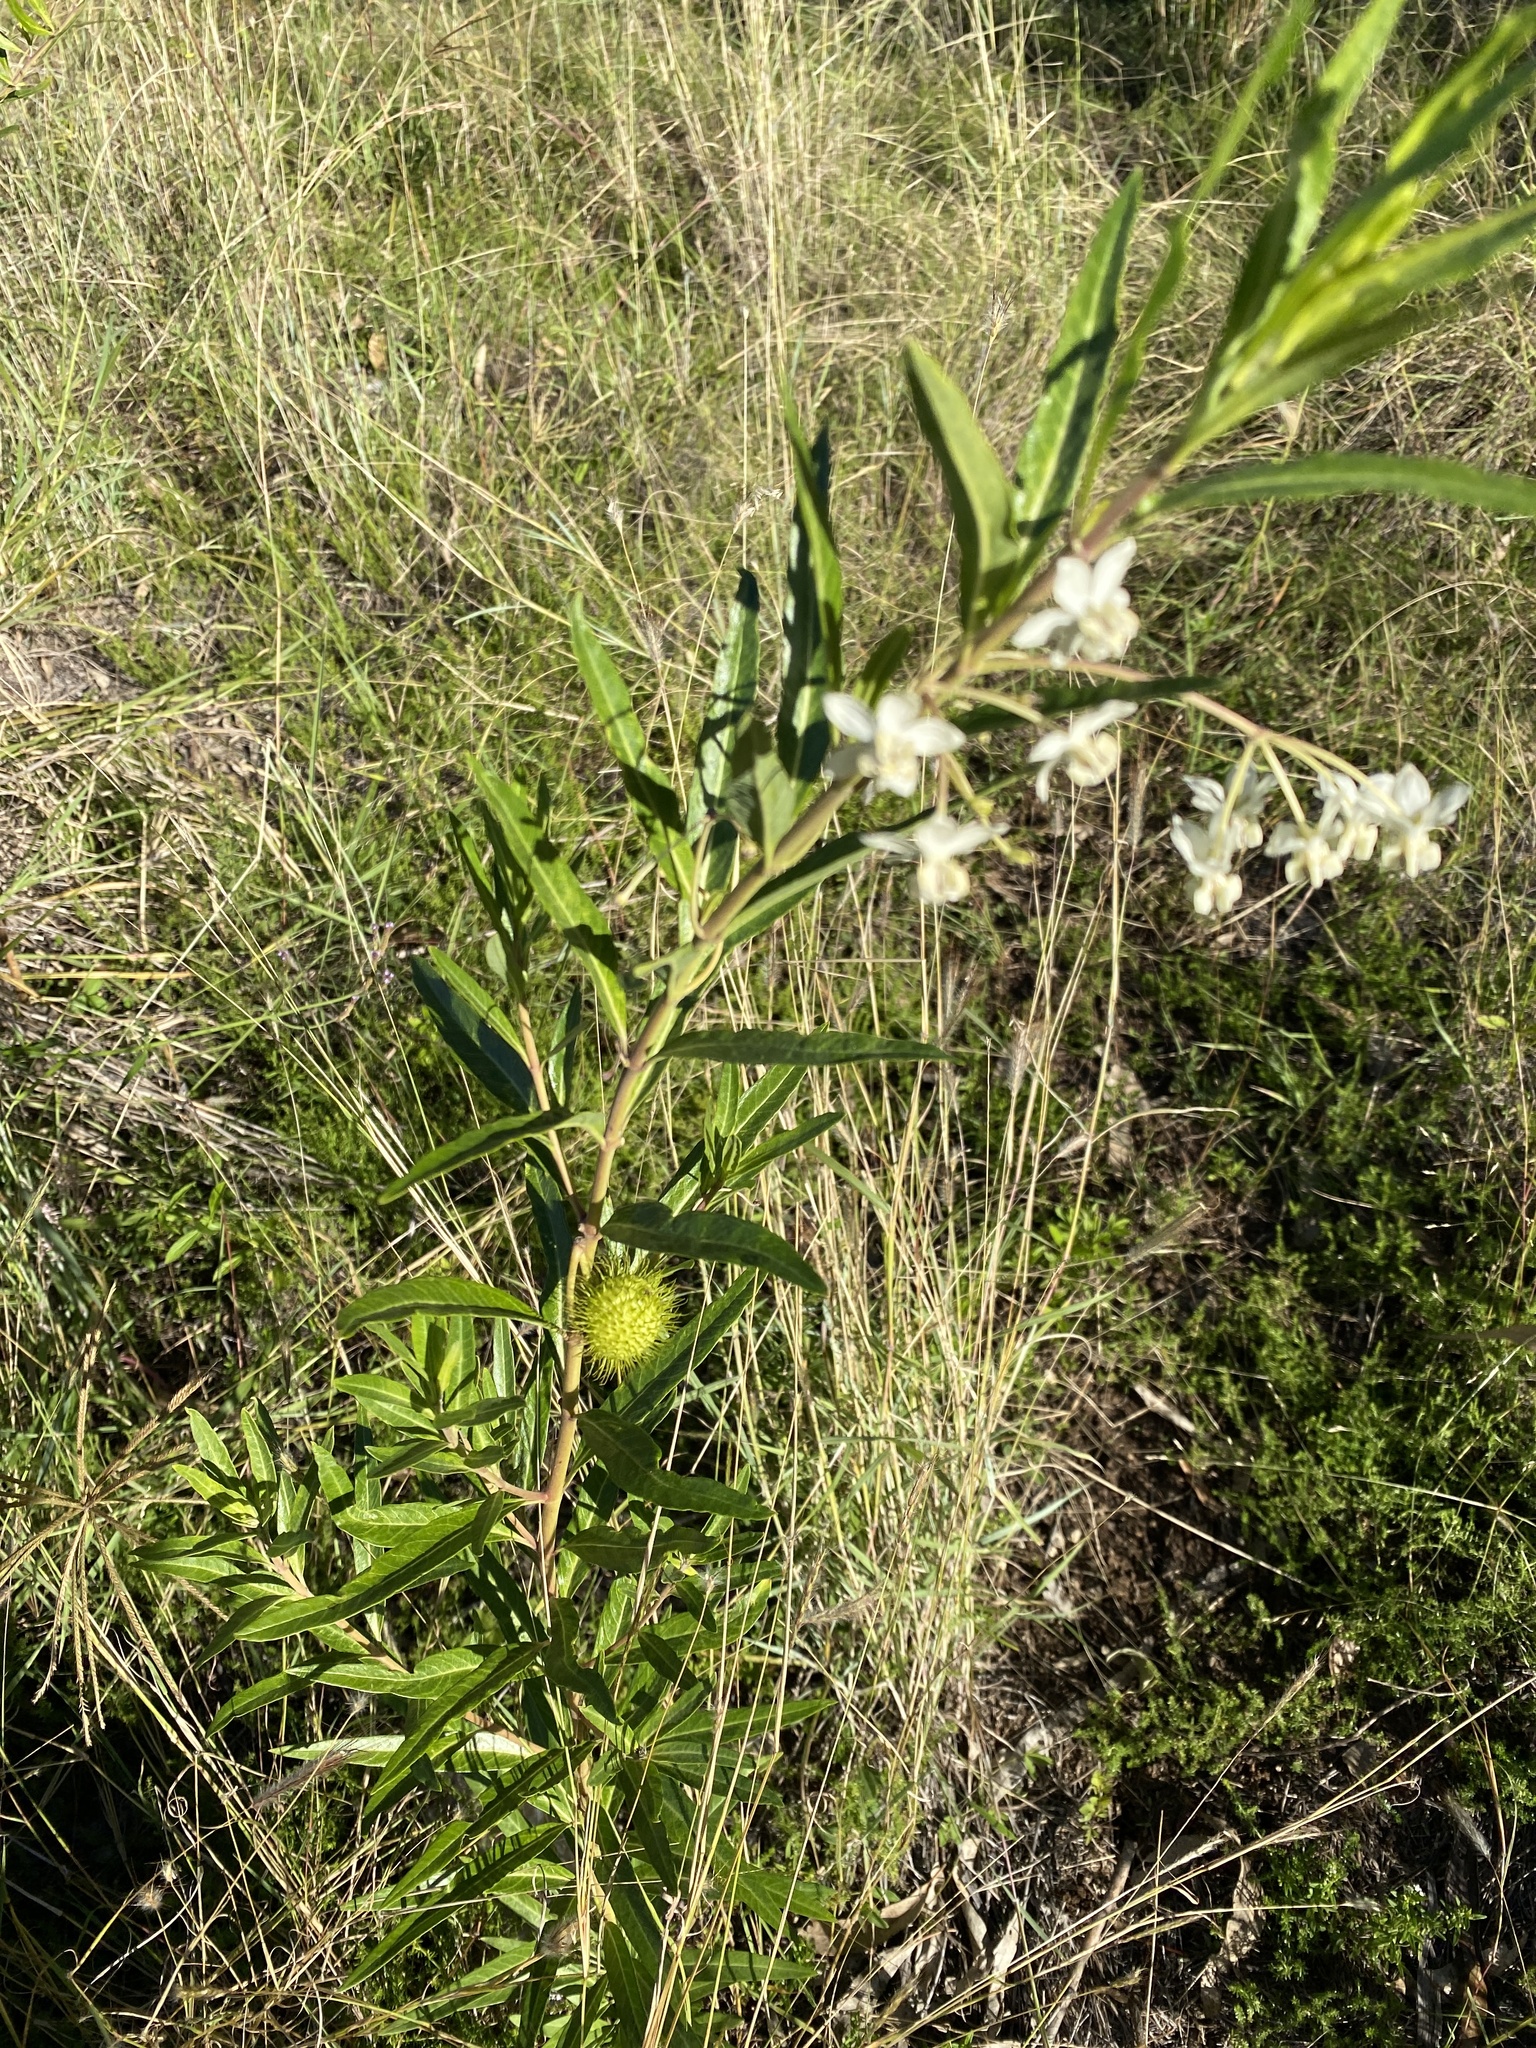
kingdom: Plantae
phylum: Tracheophyta
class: Magnoliopsida
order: Gentianales
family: Apocynaceae
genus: Gomphocarpus
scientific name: Gomphocarpus physocarpus
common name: Balloon cotton bush
